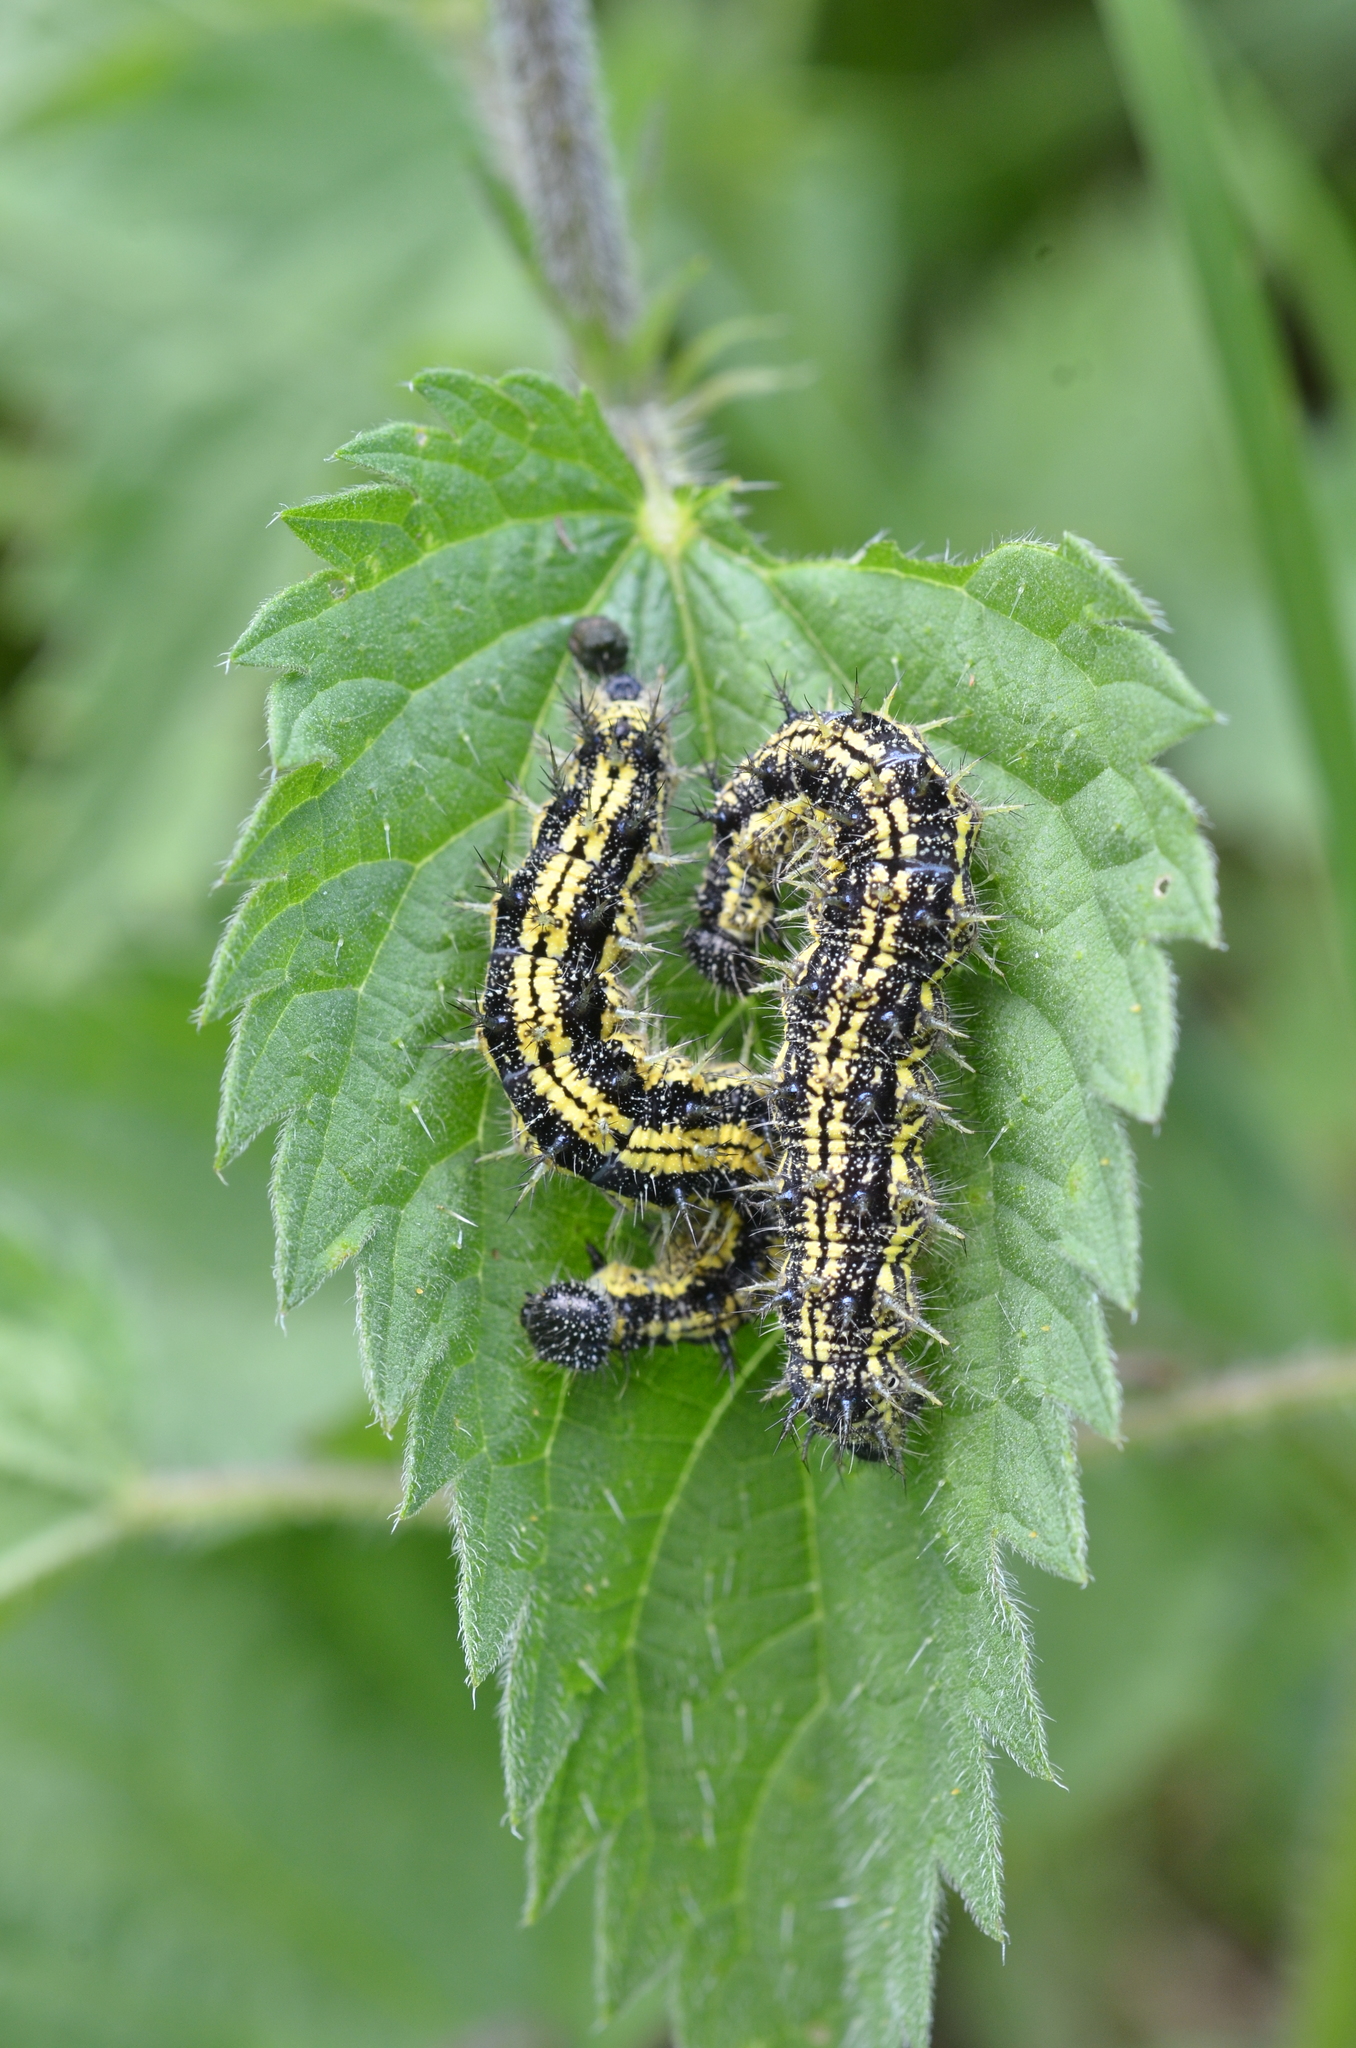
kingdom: Animalia
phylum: Arthropoda
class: Insecta
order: Lepidoptera
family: Nymphalidae
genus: Aglais
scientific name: Aglais urticae
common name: Small tortoiseshell
